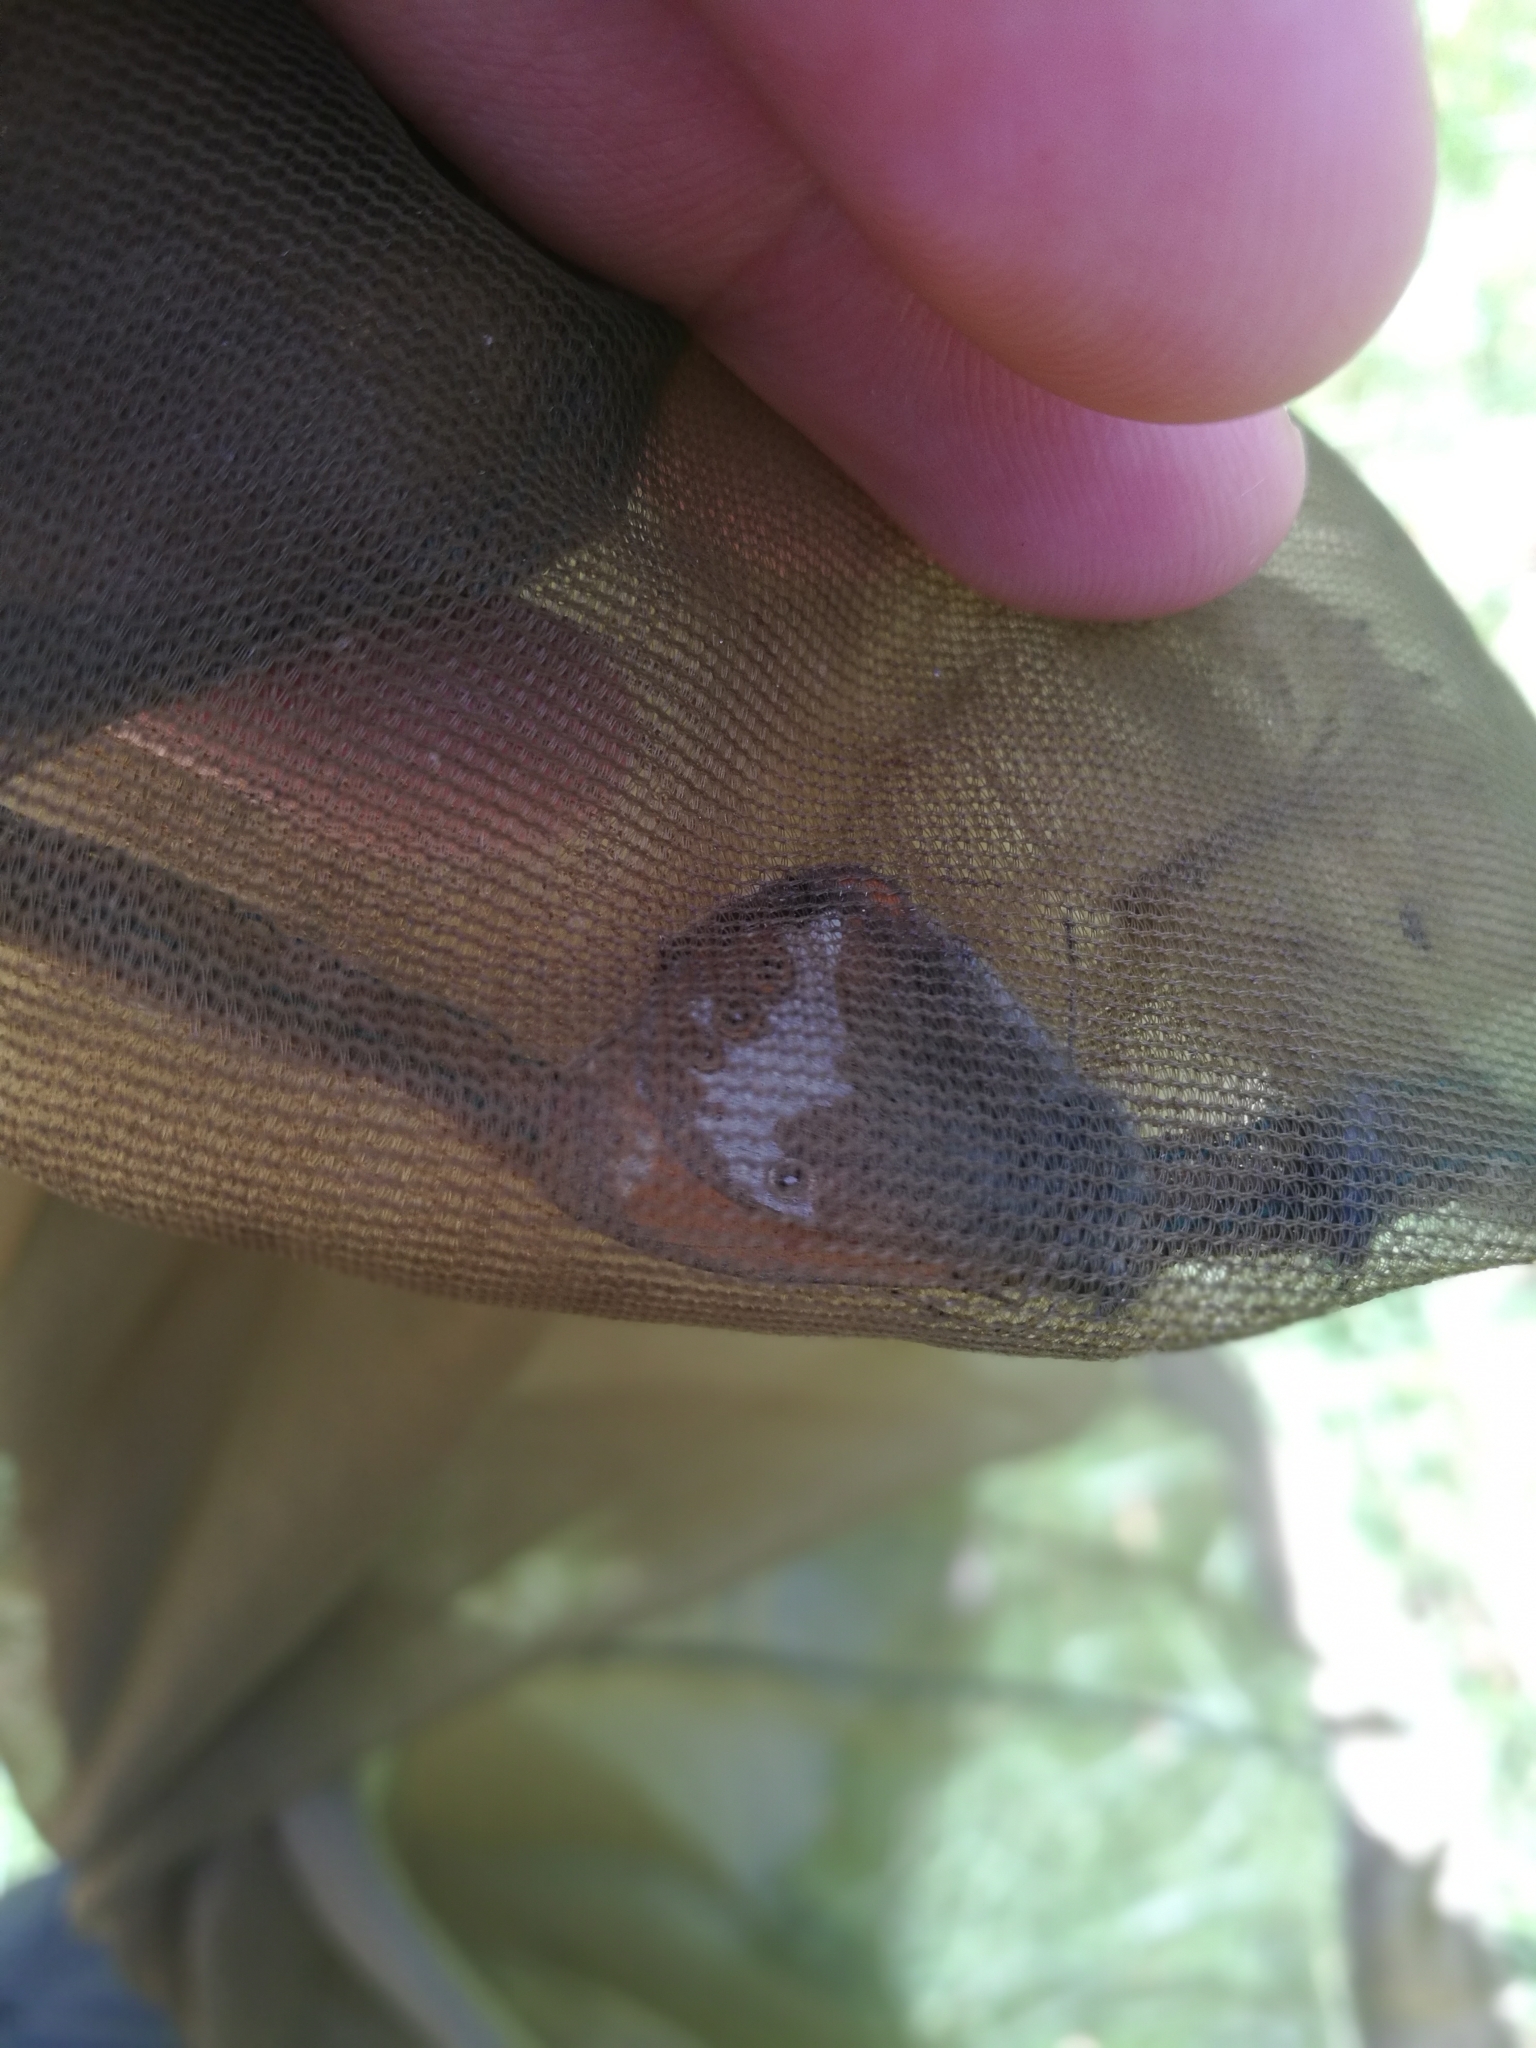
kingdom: Animalia
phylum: Arthropoda
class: Insecta
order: Lepidoptera
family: Nymphalidae
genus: Coenonympha
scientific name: Coenonympha arcania
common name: Pearly heath
